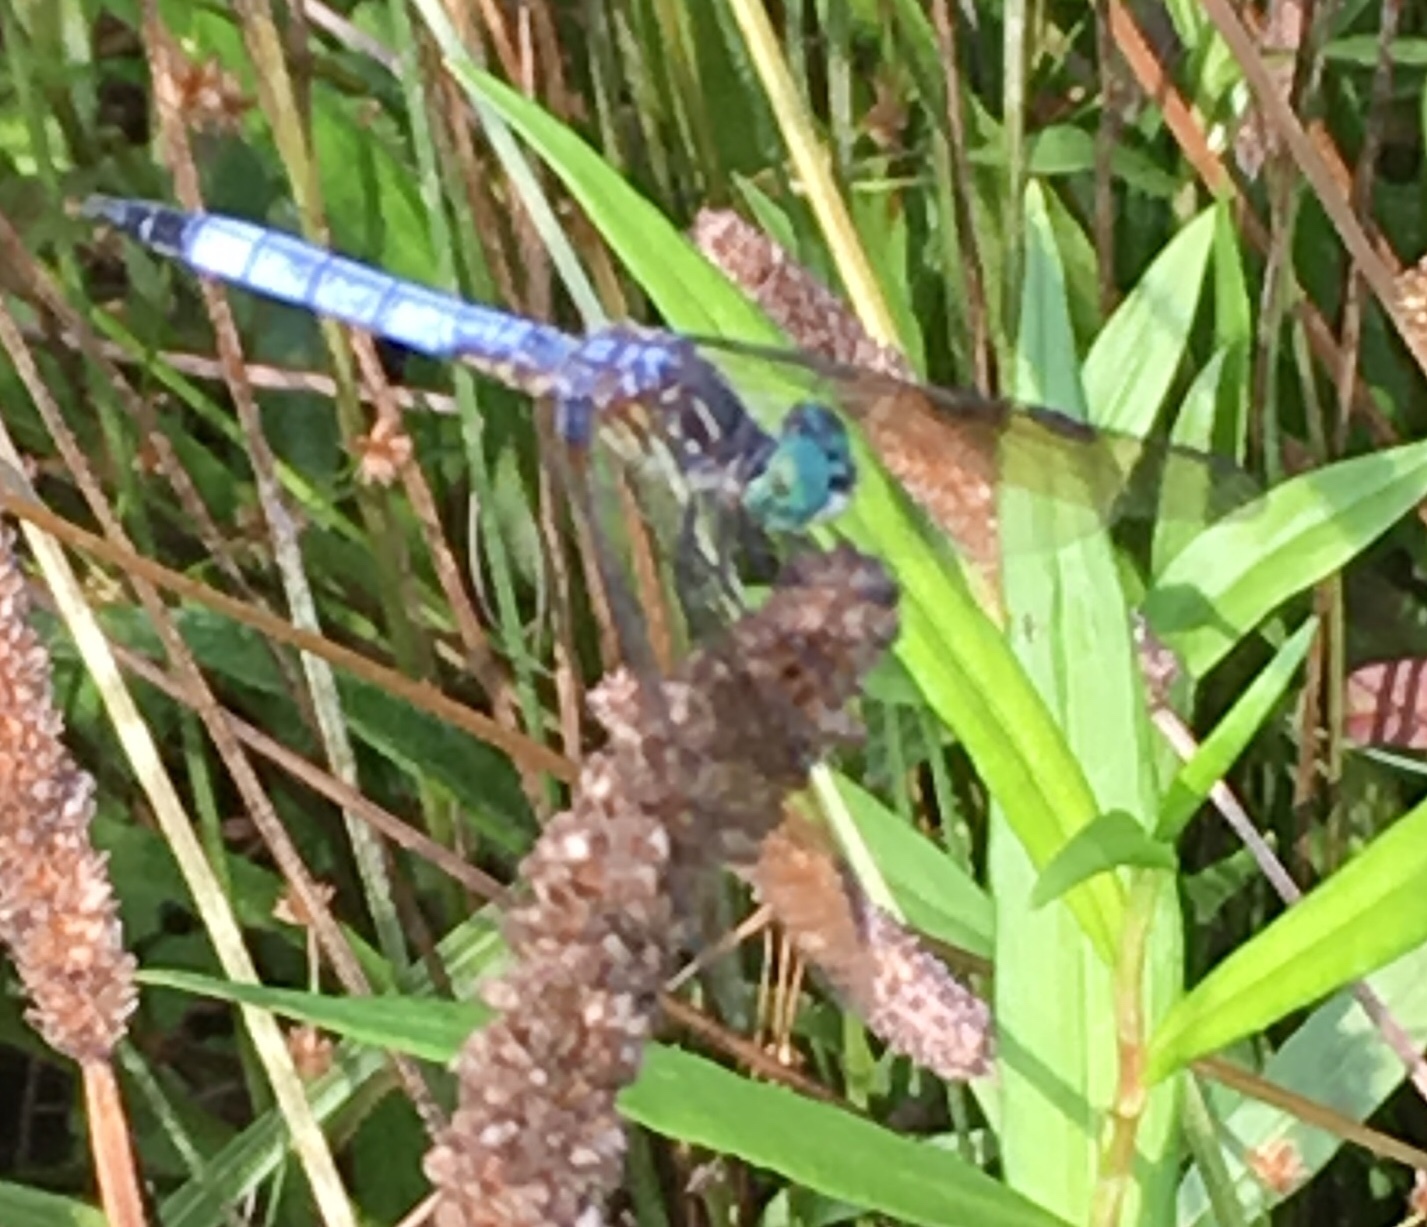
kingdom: Animalia
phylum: Arthropoda
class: Insecta
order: Odonata
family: Libellulidae
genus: Pachydiplax
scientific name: Pachydiplax longipennis
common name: Blue dasher
